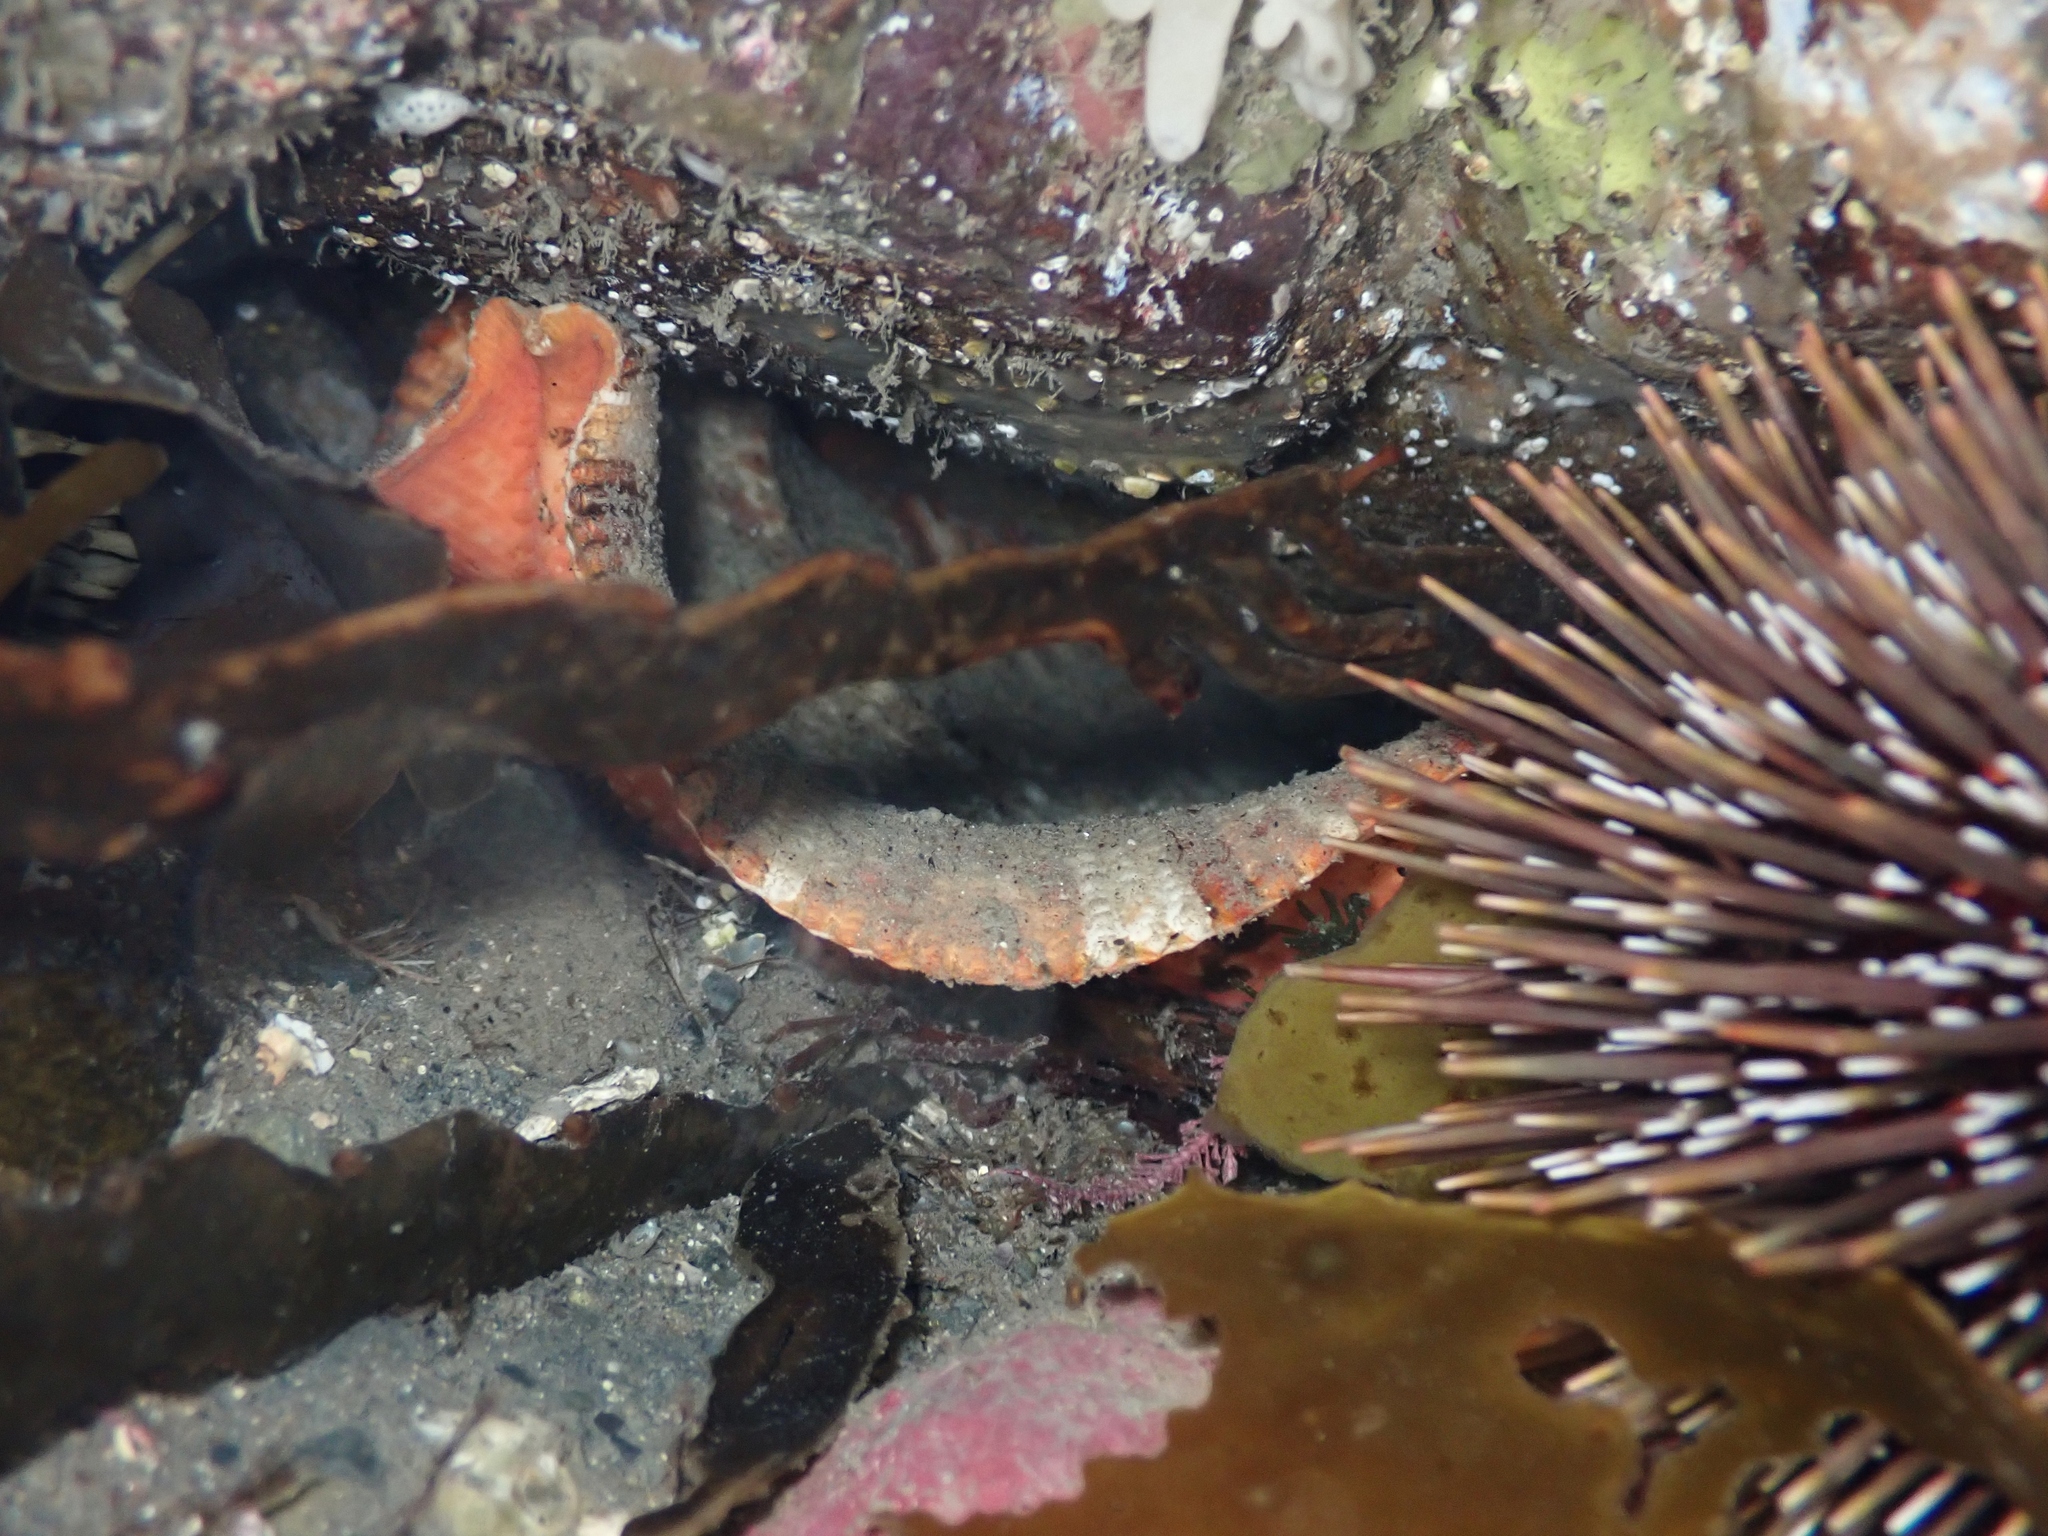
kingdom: Animalia
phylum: Echinodermata
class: Asteroidea
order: Valvatida
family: Asterinidae
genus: Stegnaster
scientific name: Stegnaster inflatus
